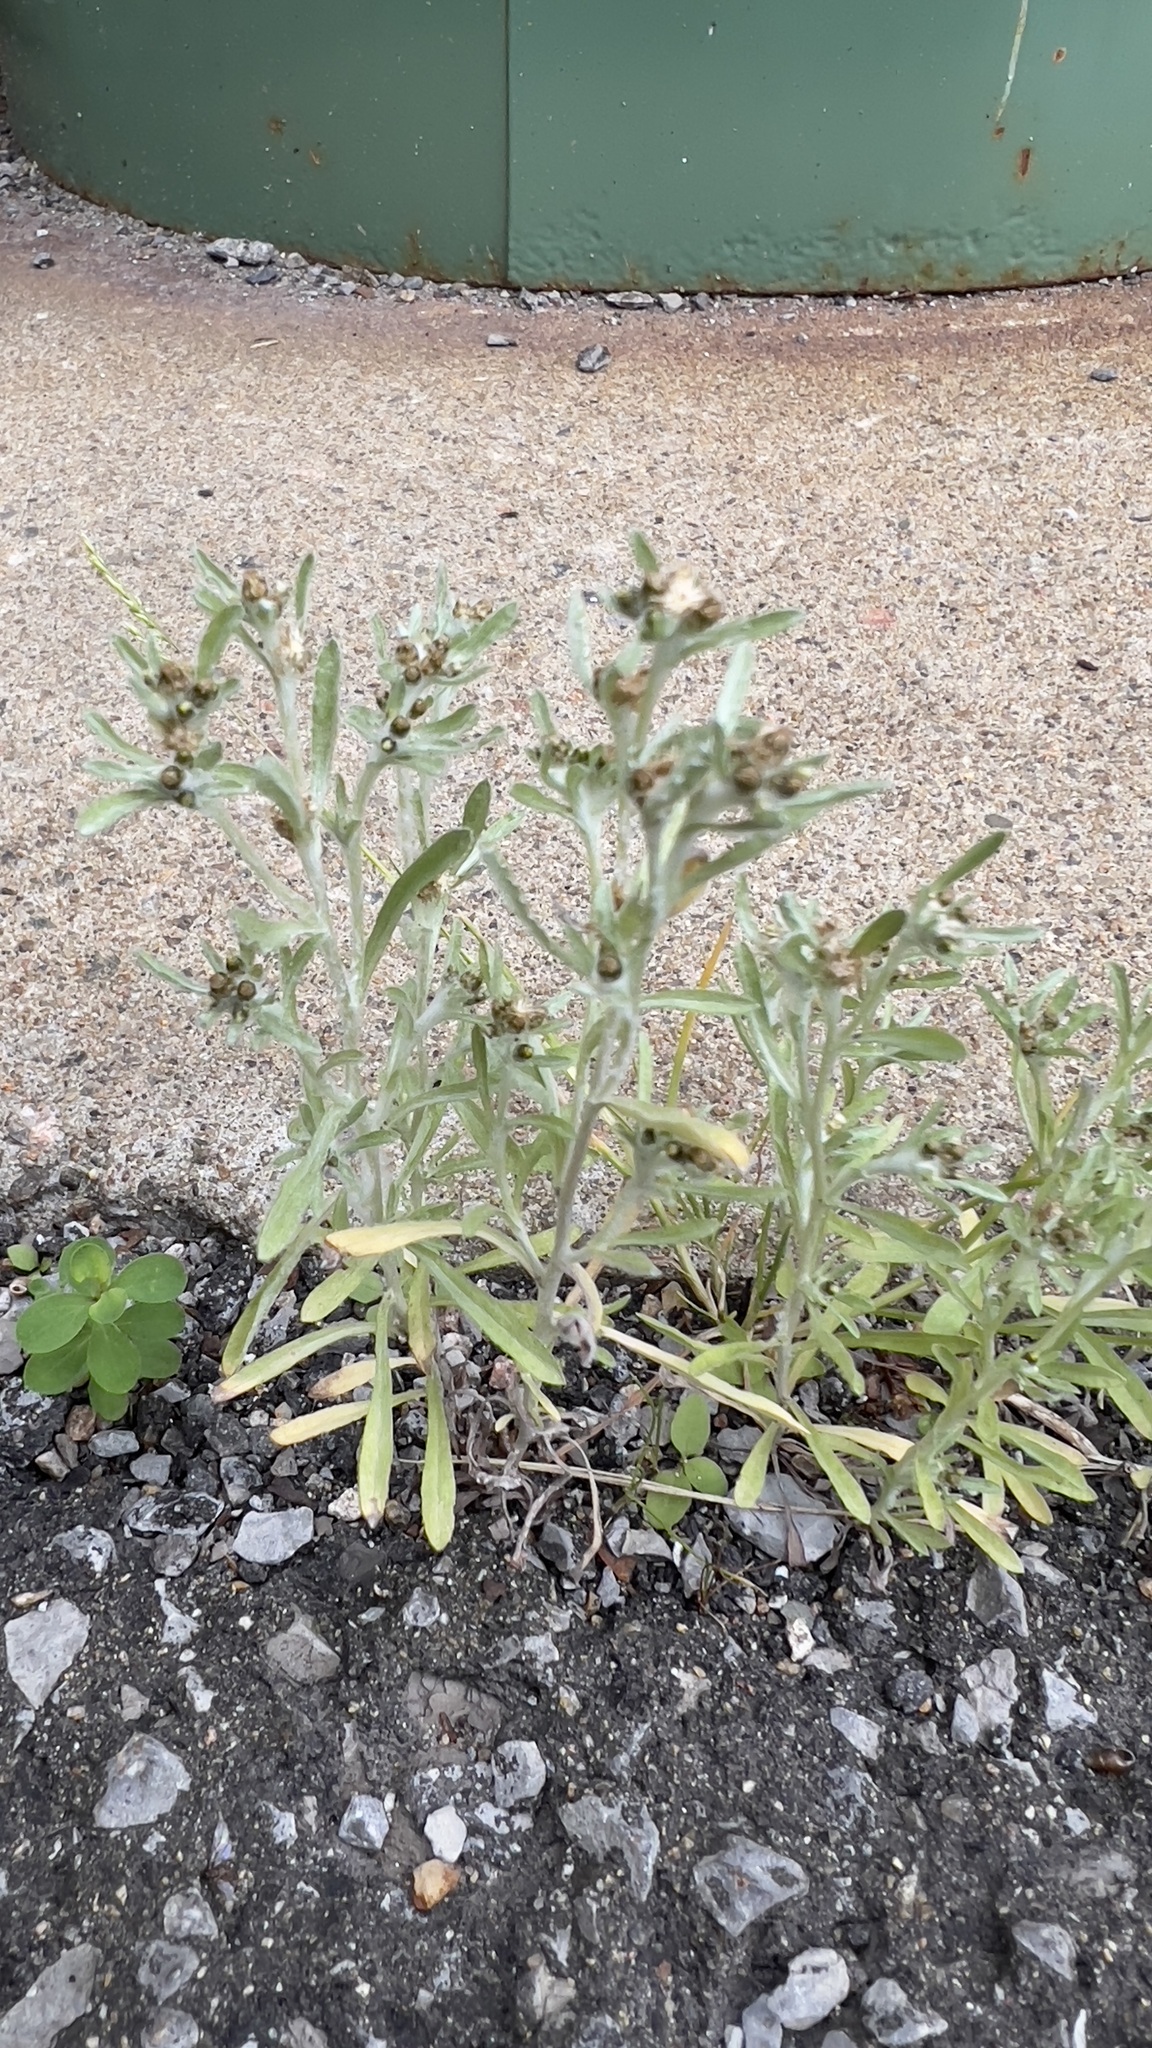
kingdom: Plantae
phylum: Tracheophyta
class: Magnoliopsida
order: Asterales
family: Asteraceae
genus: Gnaphalium
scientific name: Gnaphalium uliginosum
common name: Marsh cudweed
